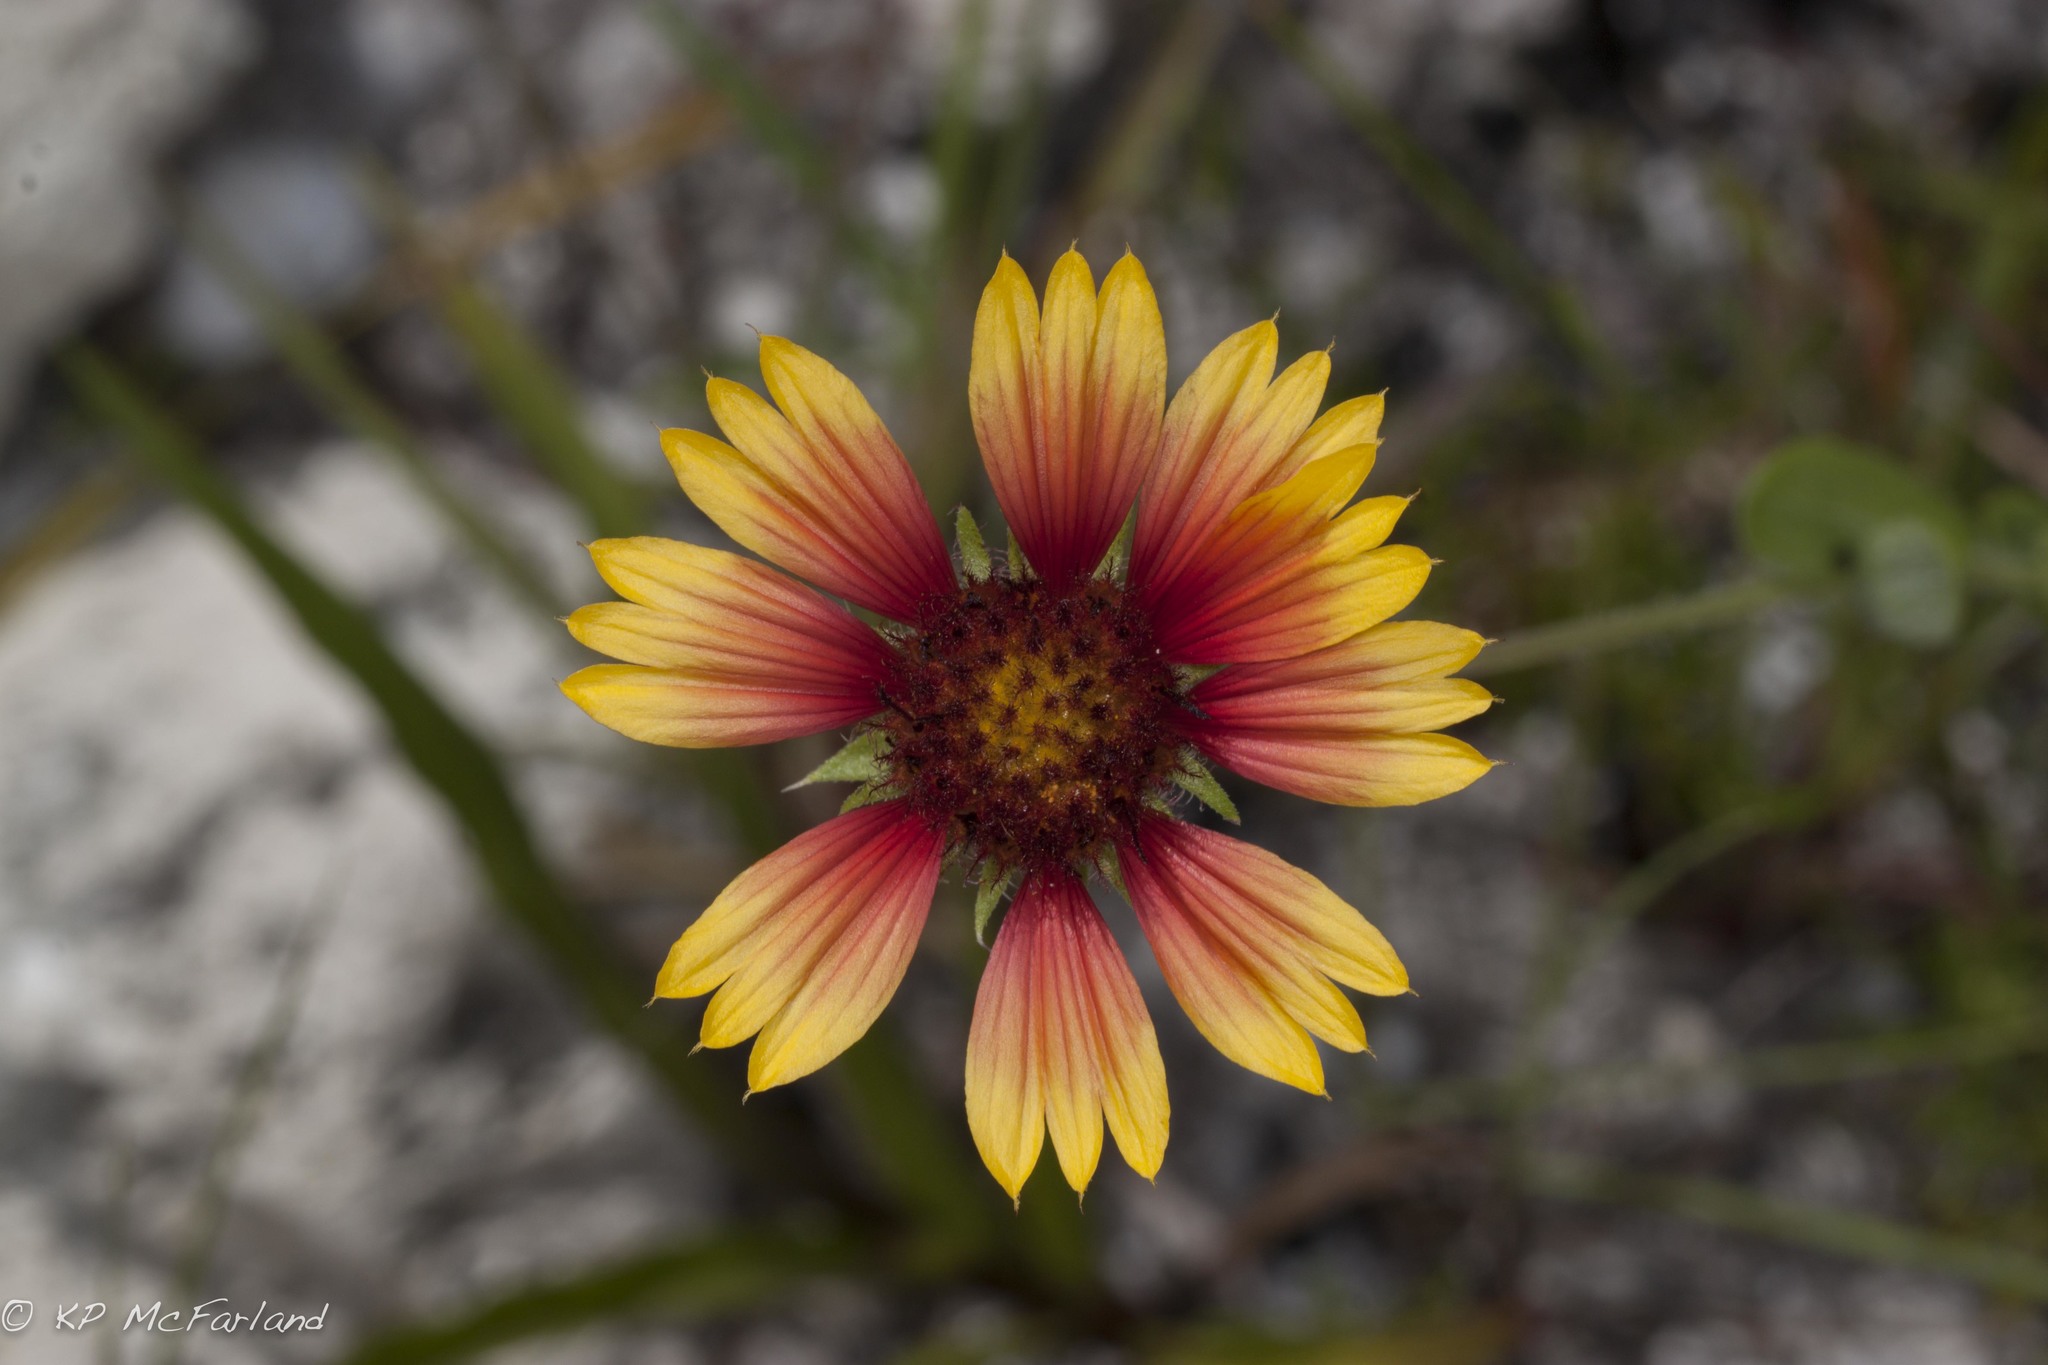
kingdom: Plantae
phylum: Tracheophyta
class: Magnoliopsida
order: Asterales
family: Asteraceae
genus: Gaillardia
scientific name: Gaillardia pulchella
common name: Firewheel
